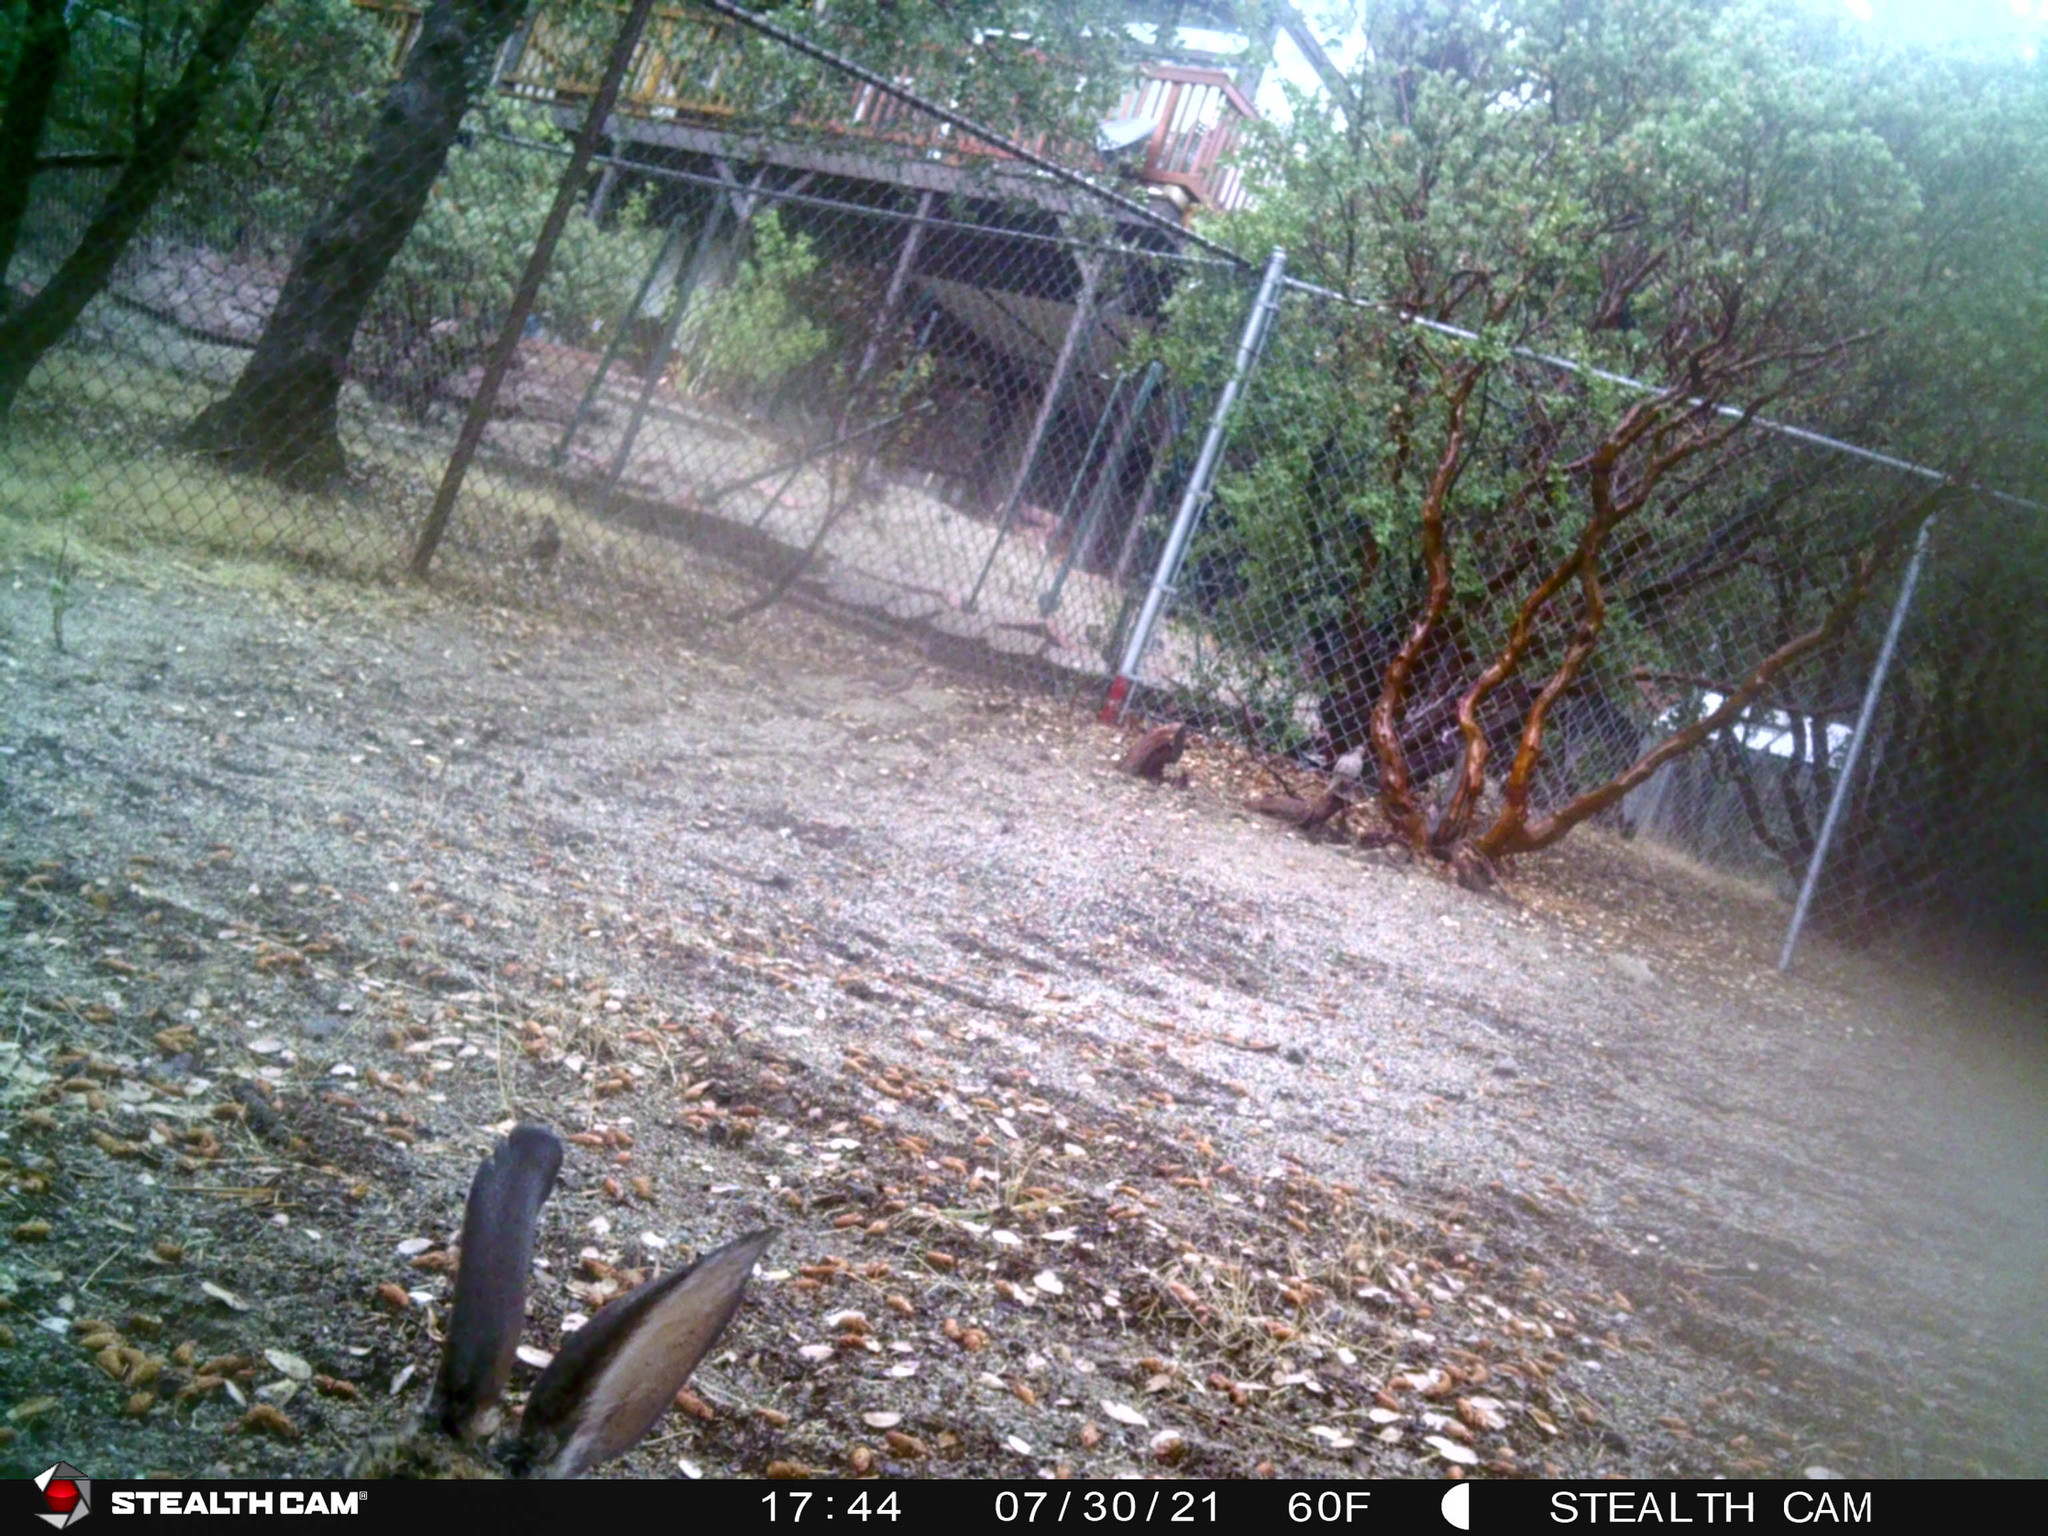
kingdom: Animalia
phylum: Chordata
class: Mammalia
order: Lagomorpha
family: Leporidae
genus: Sylvilagus
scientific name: Sylvilagus audubonii
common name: Desert cottontail
